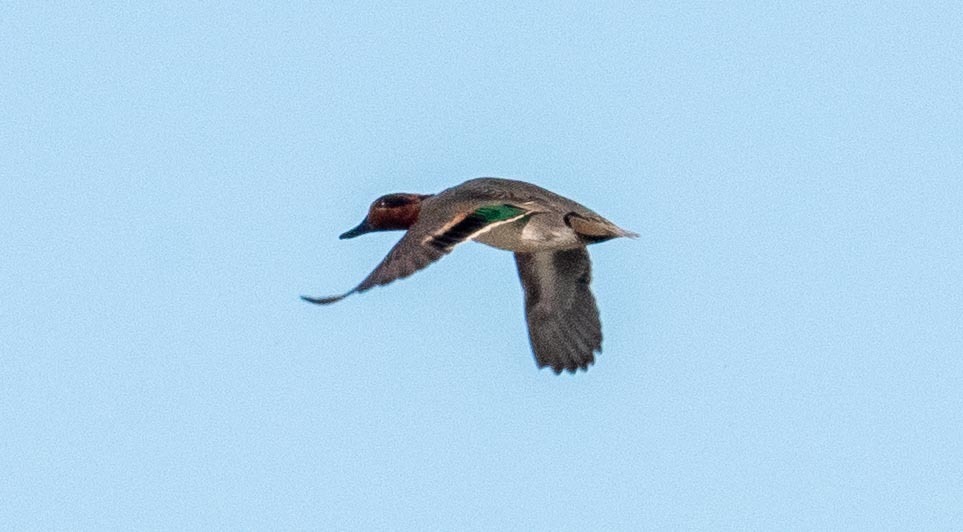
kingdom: Animalia
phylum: Chordata
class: Aves
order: Anseriformes
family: Anatidae
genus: Anas
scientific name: Anas crecca
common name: Eurasian teal
